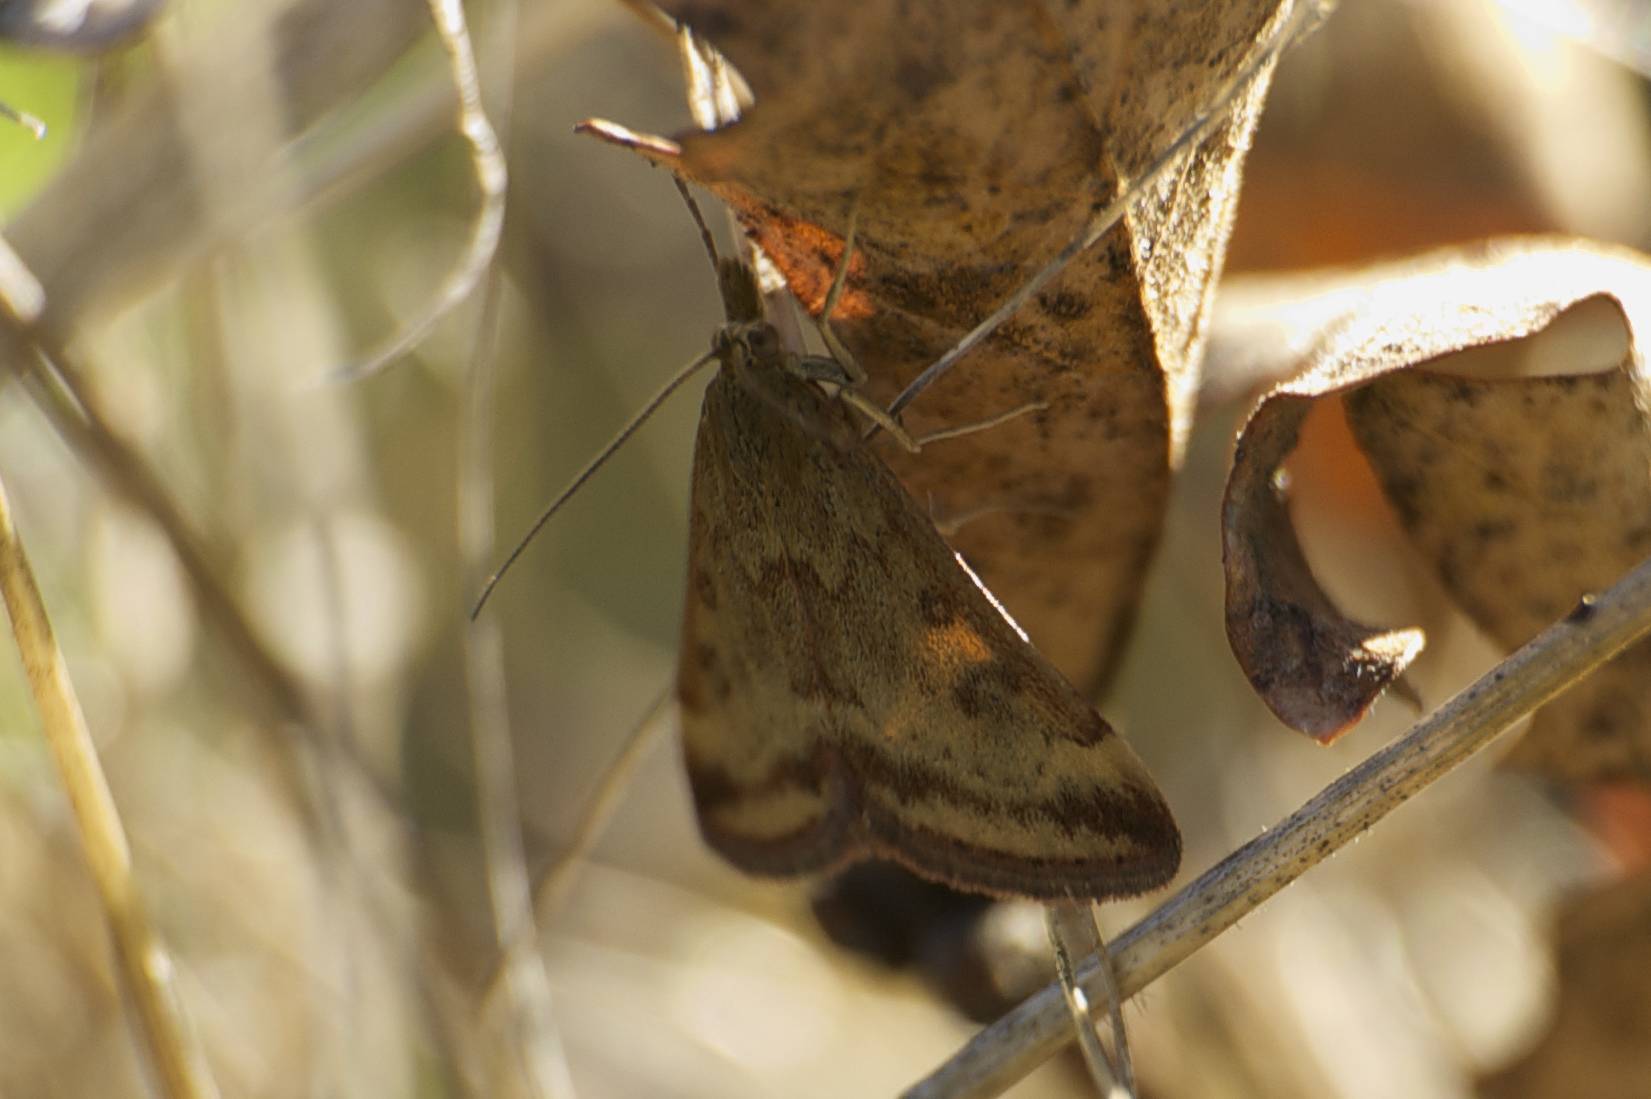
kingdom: Animalia
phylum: Arthropoda
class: Insecta
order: Lepidoptera
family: Crambidae
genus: Pyrausta
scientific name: Pyrausta subsequalis
